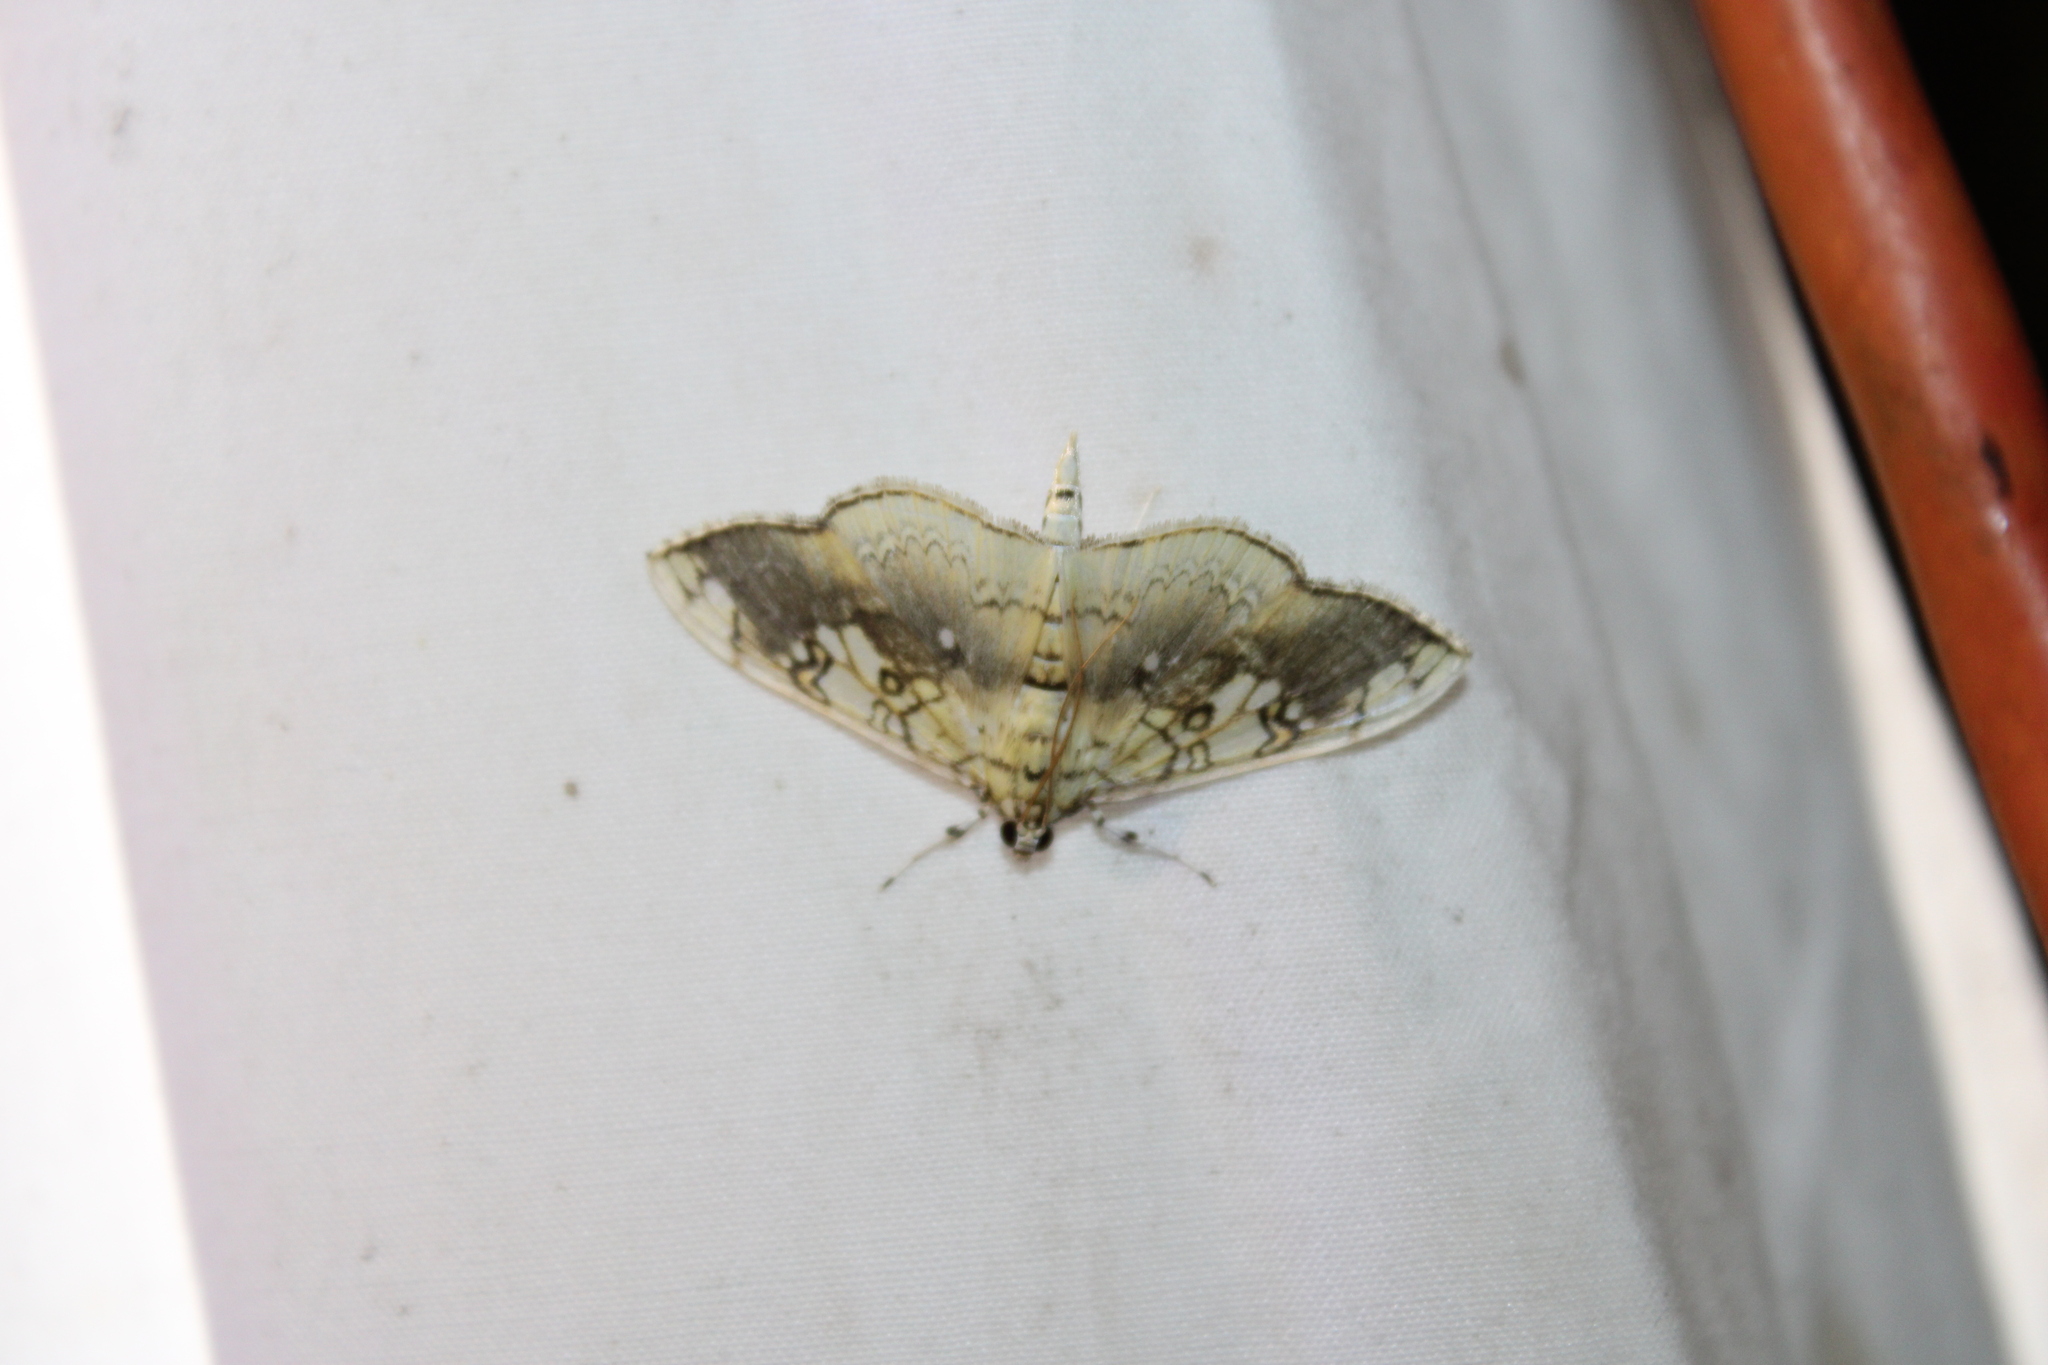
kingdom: Animalia
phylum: Arthropoda
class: Insecta
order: Lepidoptera
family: Crambidae
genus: Pantographa
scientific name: Pantographa limata
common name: Basswood leafroller moth
